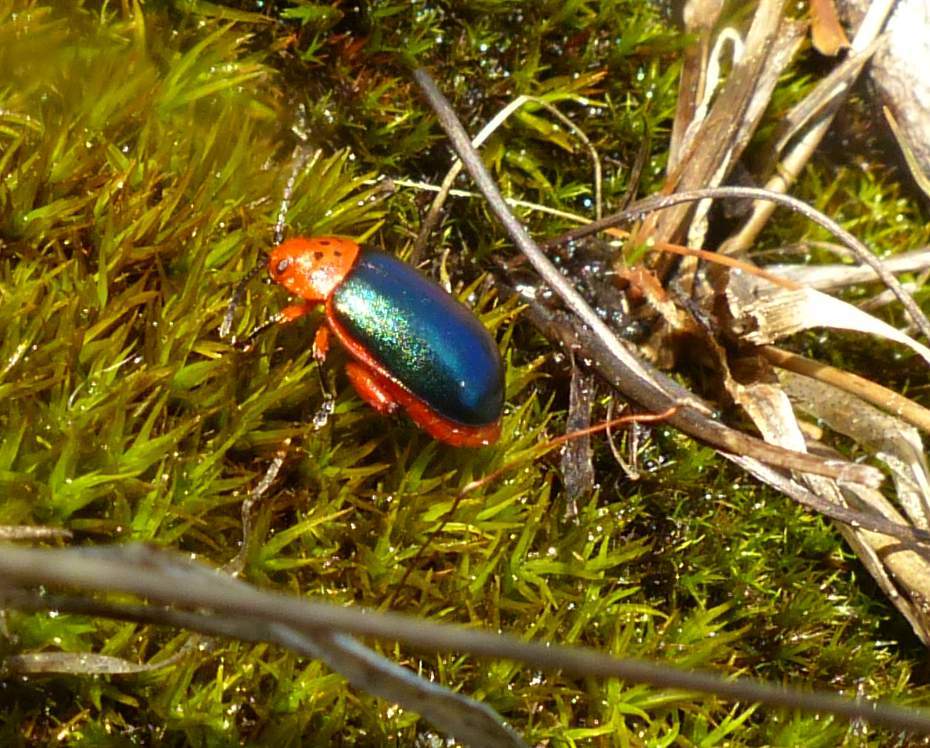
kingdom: Animalia
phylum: Arthropoda
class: Insecta
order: Coleoptera
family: Chrysomelidae
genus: Kuschelina
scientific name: Kuschelina thoracica
